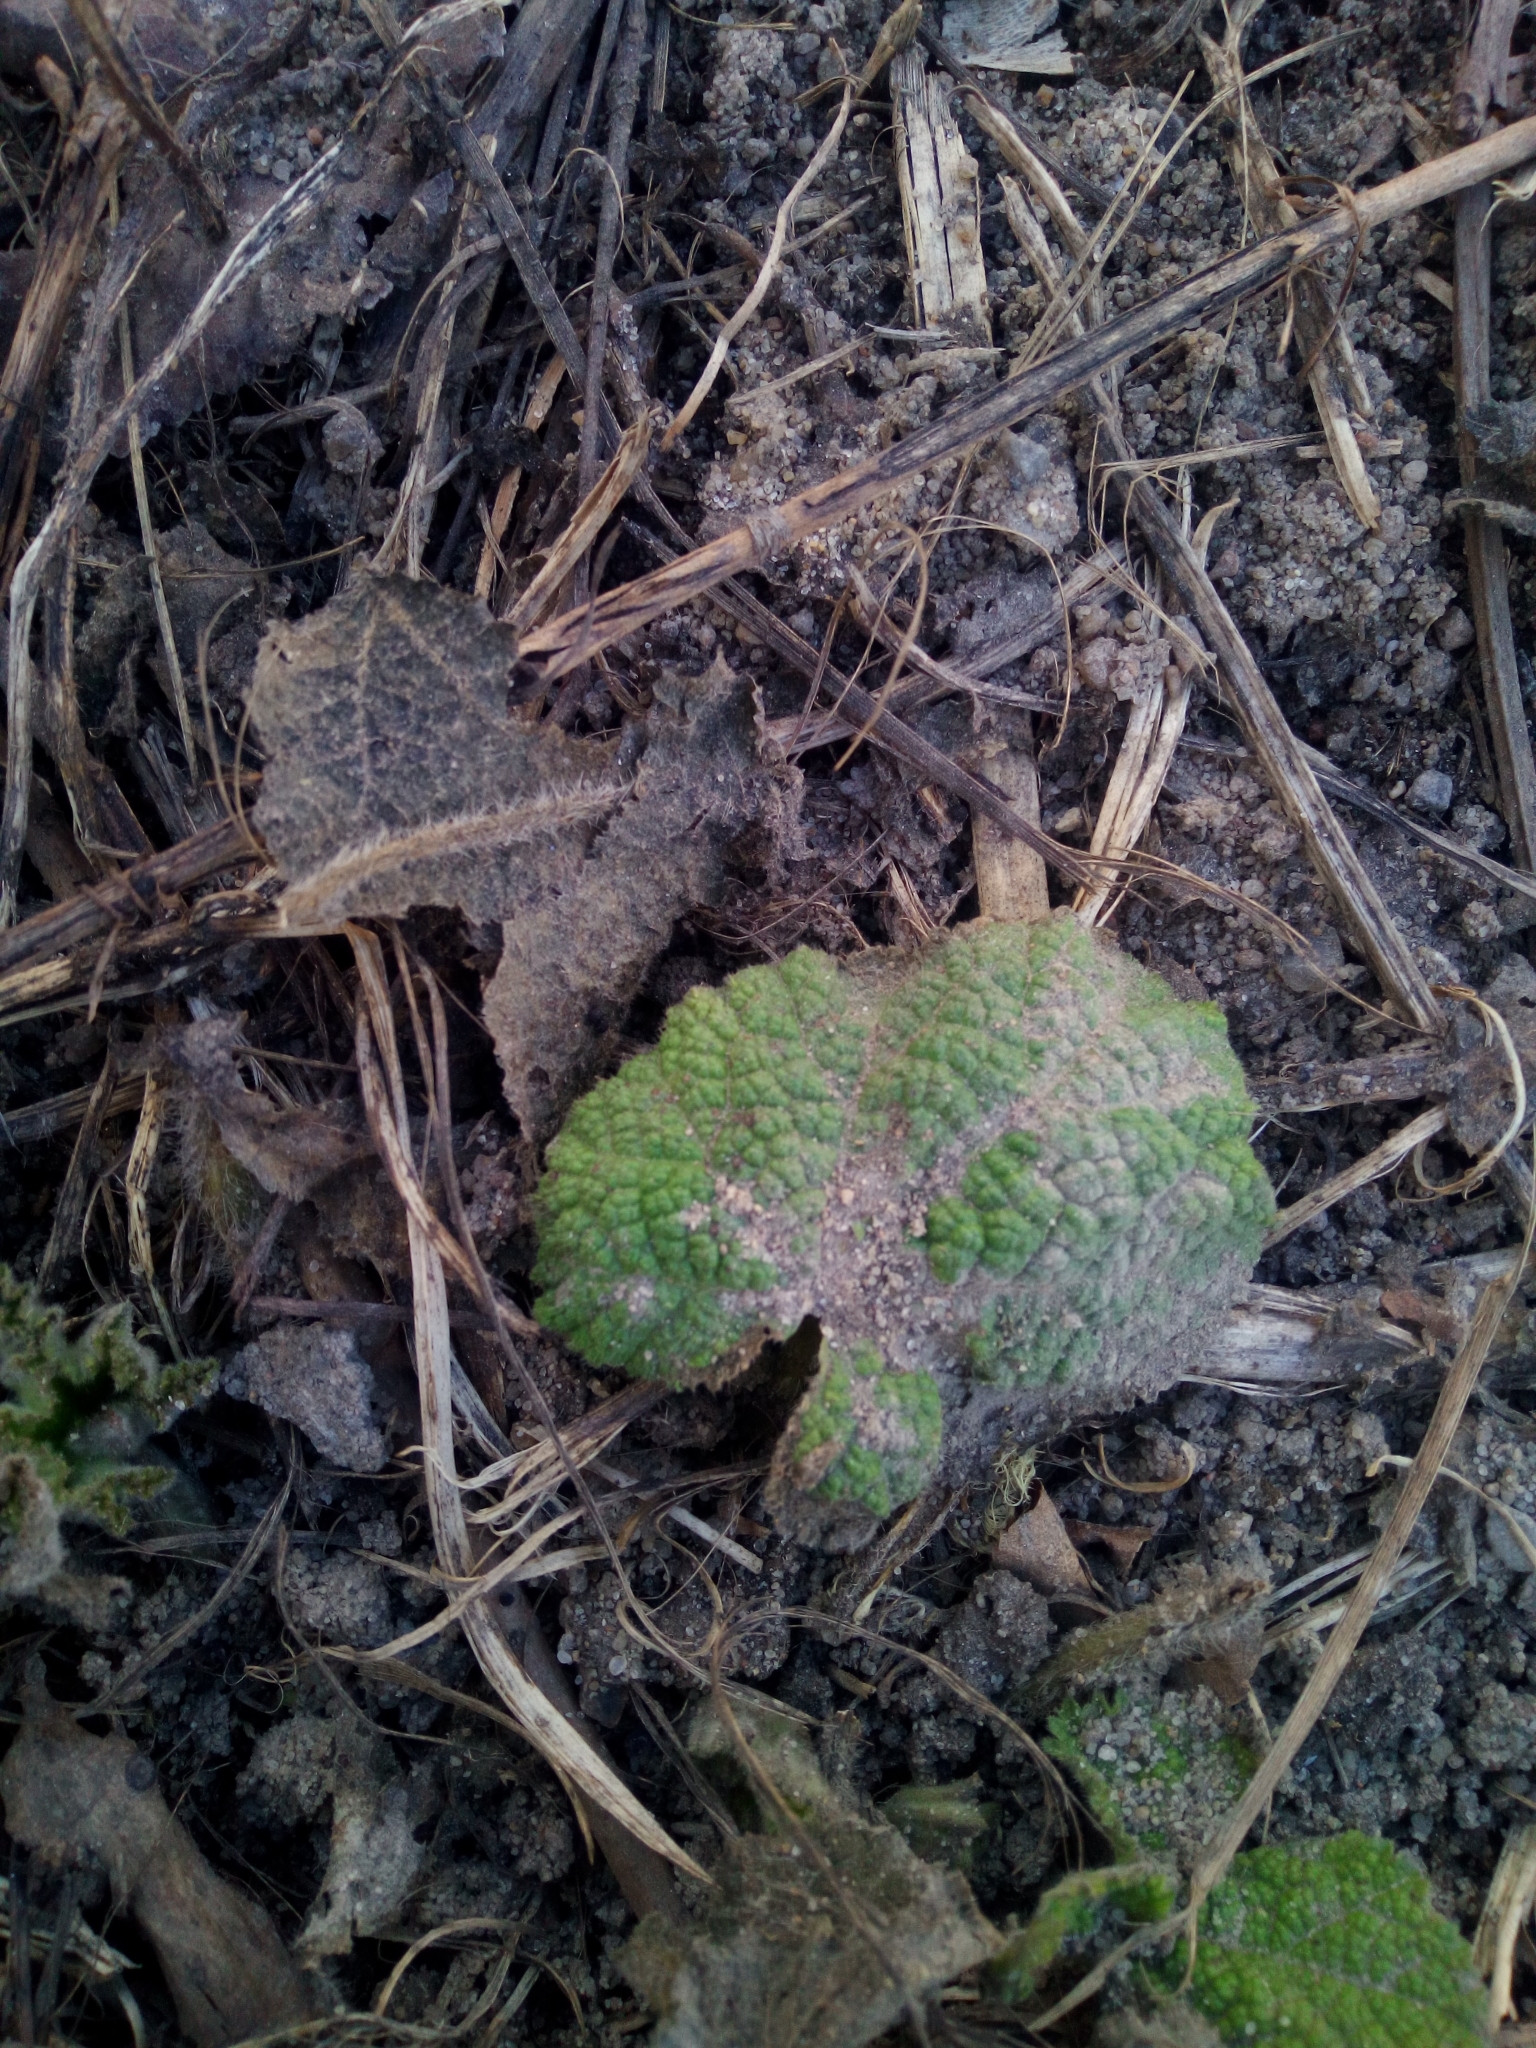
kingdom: Plantae
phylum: Tracheophyta
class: Magnoliopsida
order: Malvales
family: Malvaceae
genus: Alcea
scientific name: Alcea rosea
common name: Hollyhock
